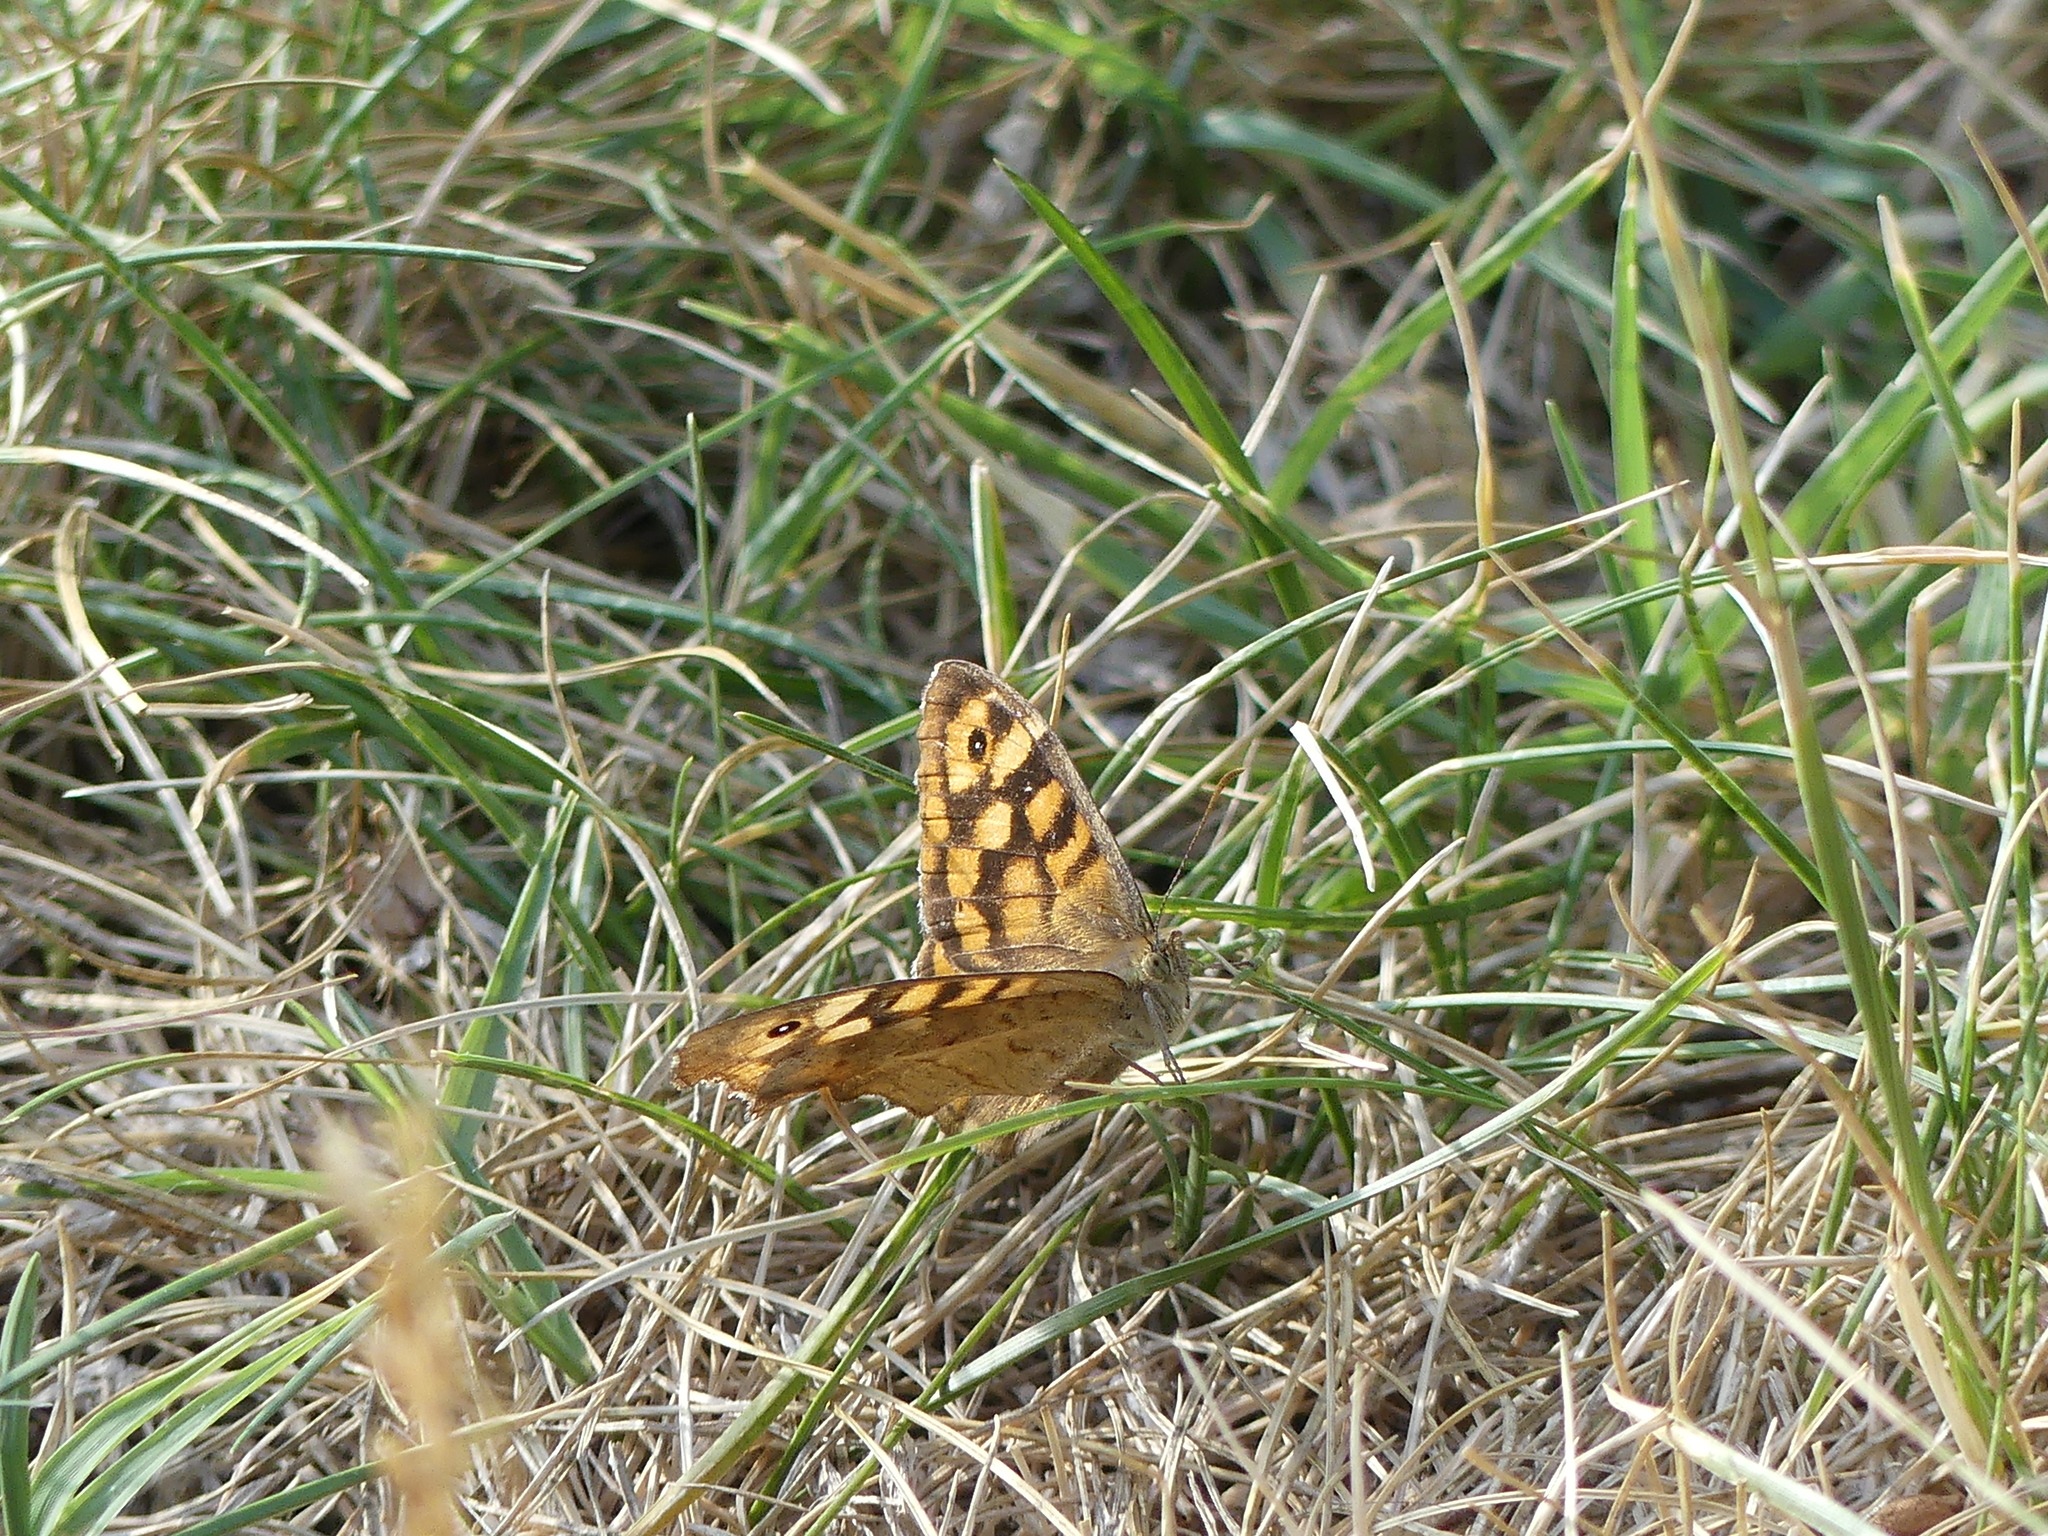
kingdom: Animalia
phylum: Arthropoda
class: Insecta
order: Lepidoptera
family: Nymphalidae
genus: Pararge
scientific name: Pararge aegeria
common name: Speckled wood
